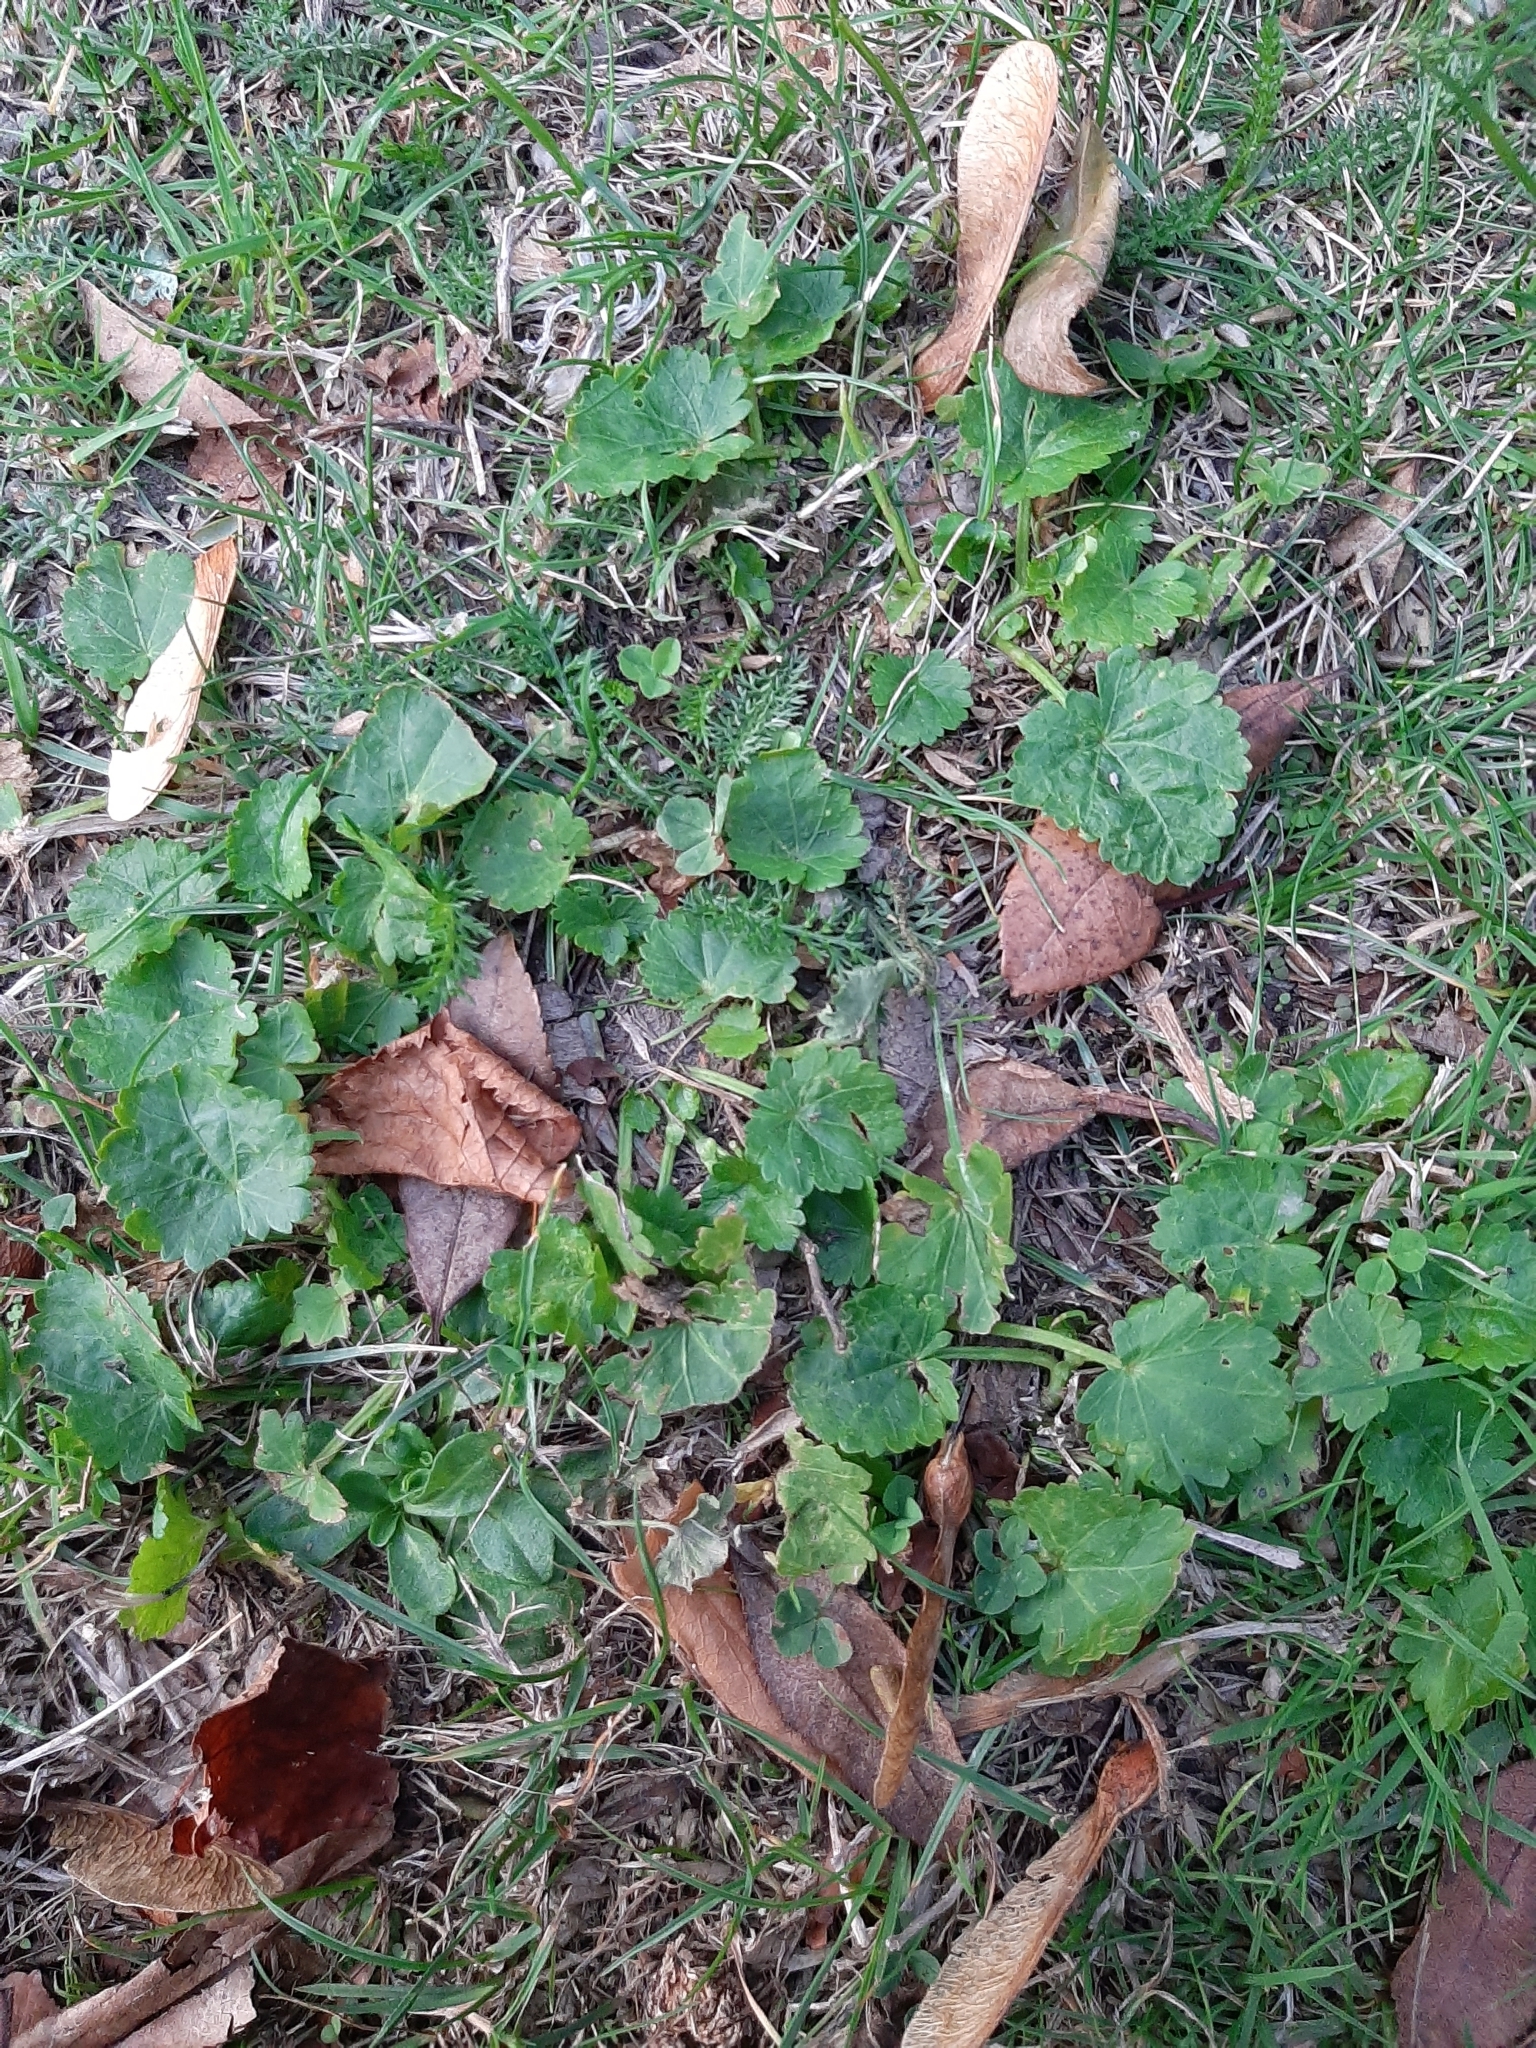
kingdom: Plantae
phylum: Tracheophyta
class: Magnoliopsida
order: Malvales
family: Malvaceae
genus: Modiola
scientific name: Modiola caroliniana
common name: Carolina bristlemallow
